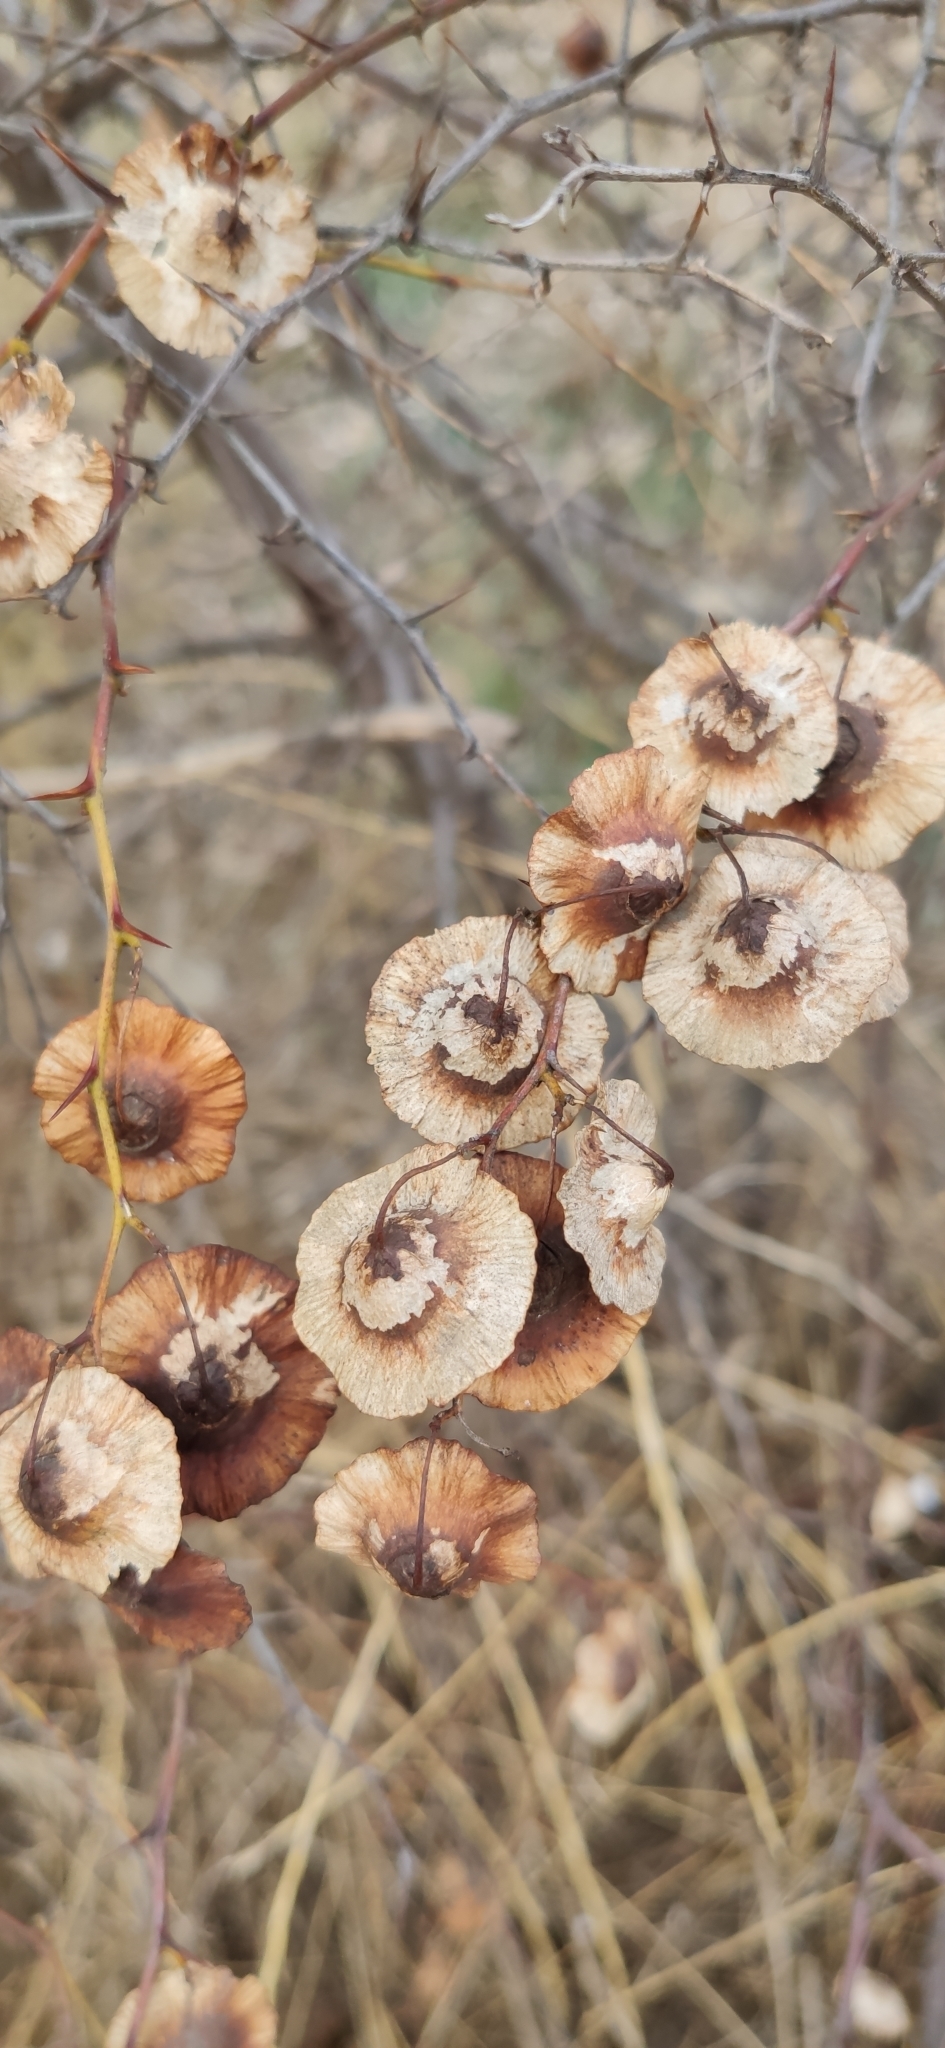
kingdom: Plantae
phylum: Tracheophyta
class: Magnoliopsida
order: Rosales
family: Rhamnaceae
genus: Paliurus
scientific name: Paliurus spina-christi
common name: Jeruselem thorn
